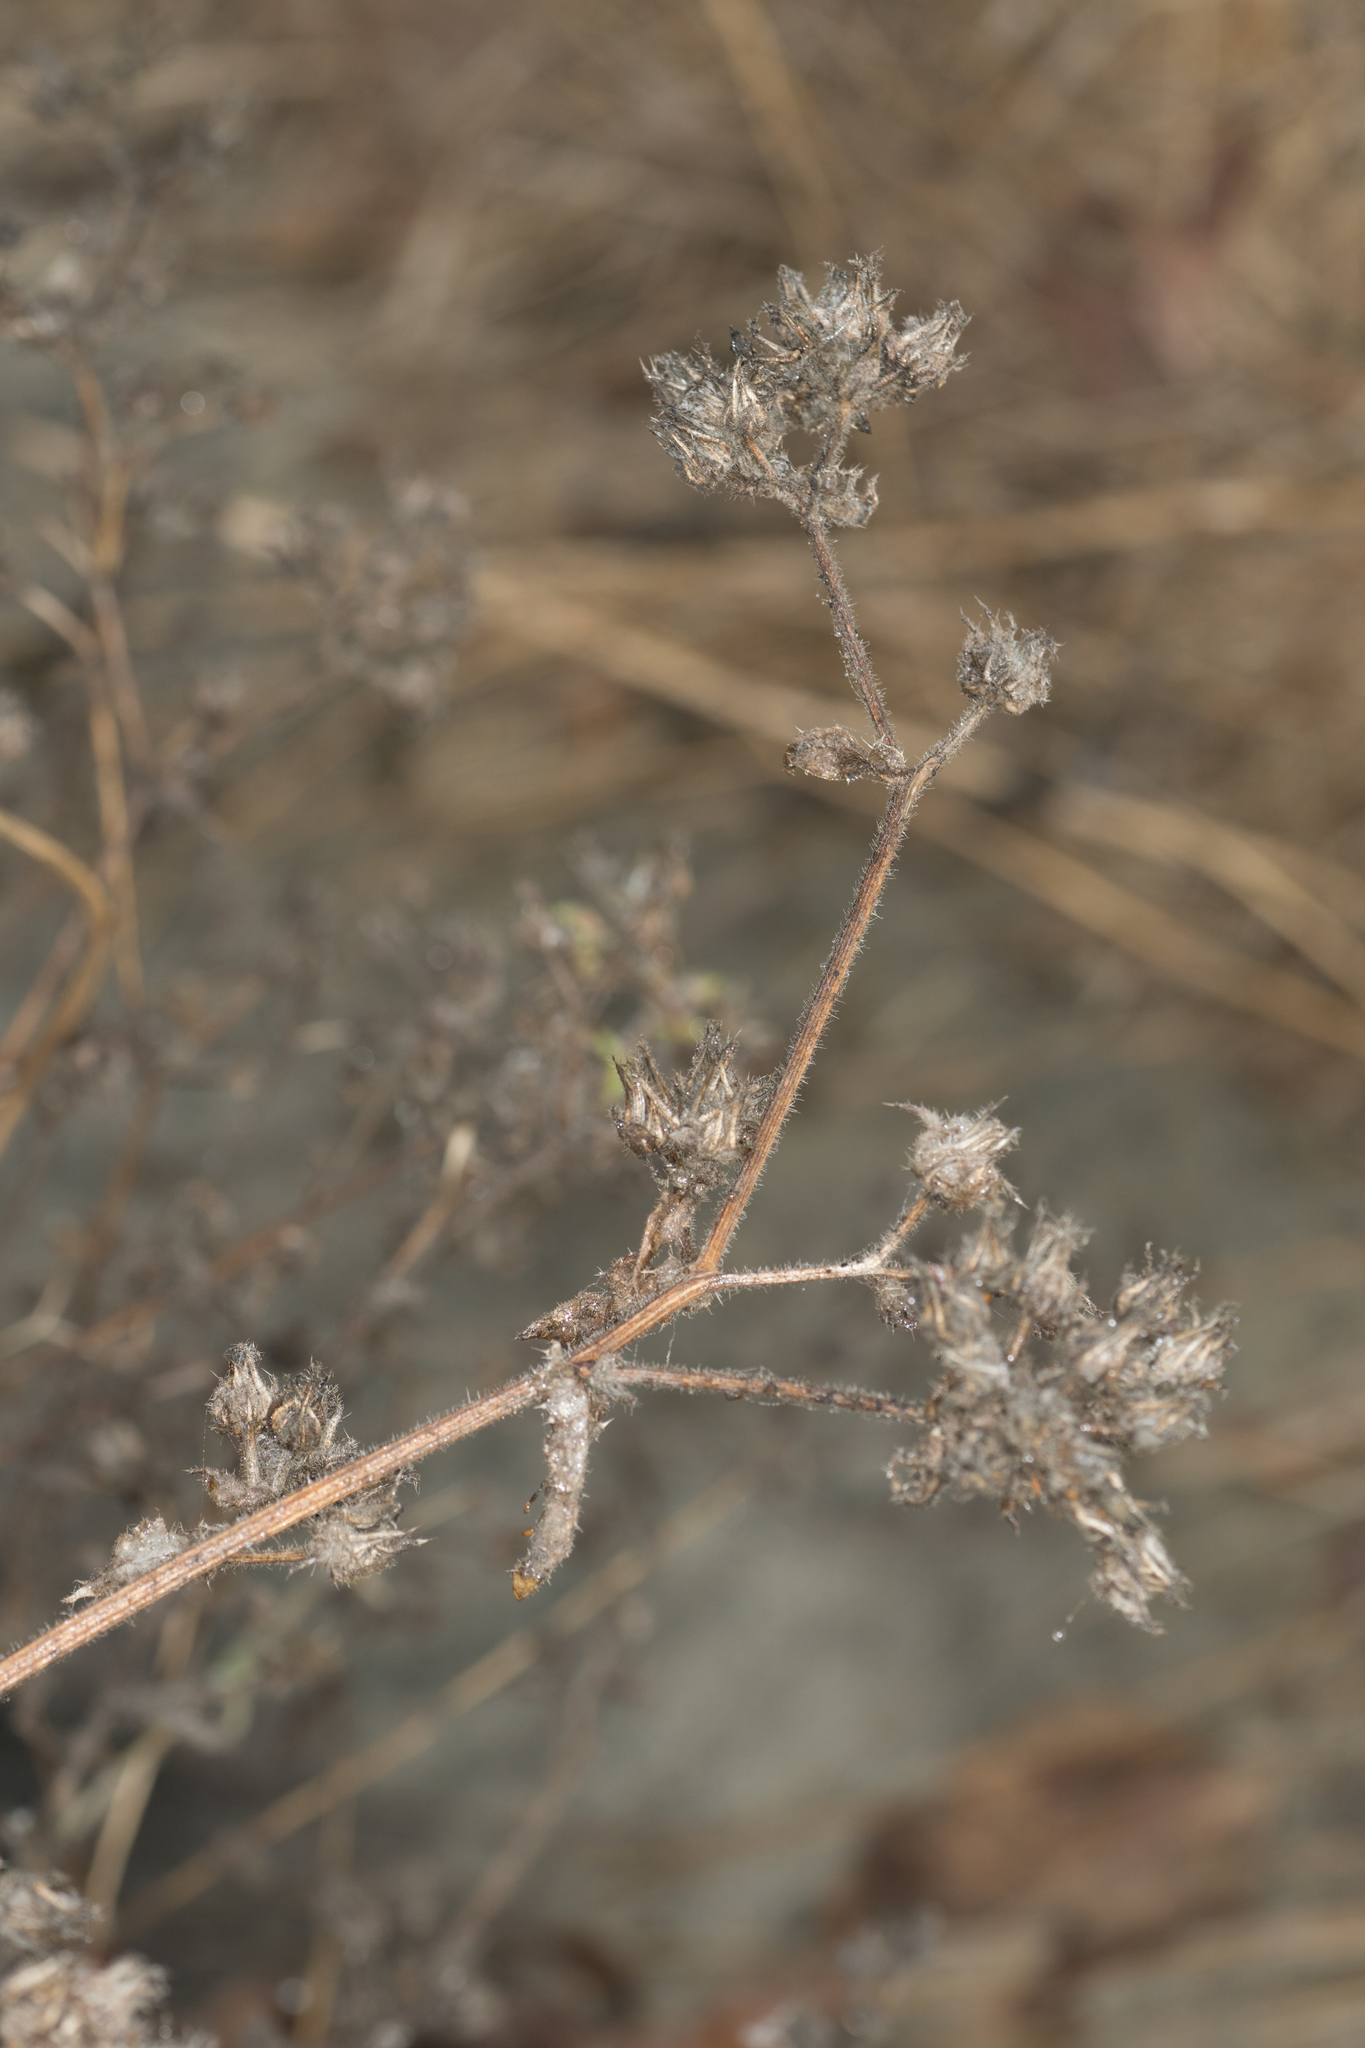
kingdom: Plantae
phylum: Tracheophyta
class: Magnoliopsida
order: Asterales
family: Asteraceae
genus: Helminthotheca
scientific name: Helminthotheca echioides
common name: Ox-tongue
